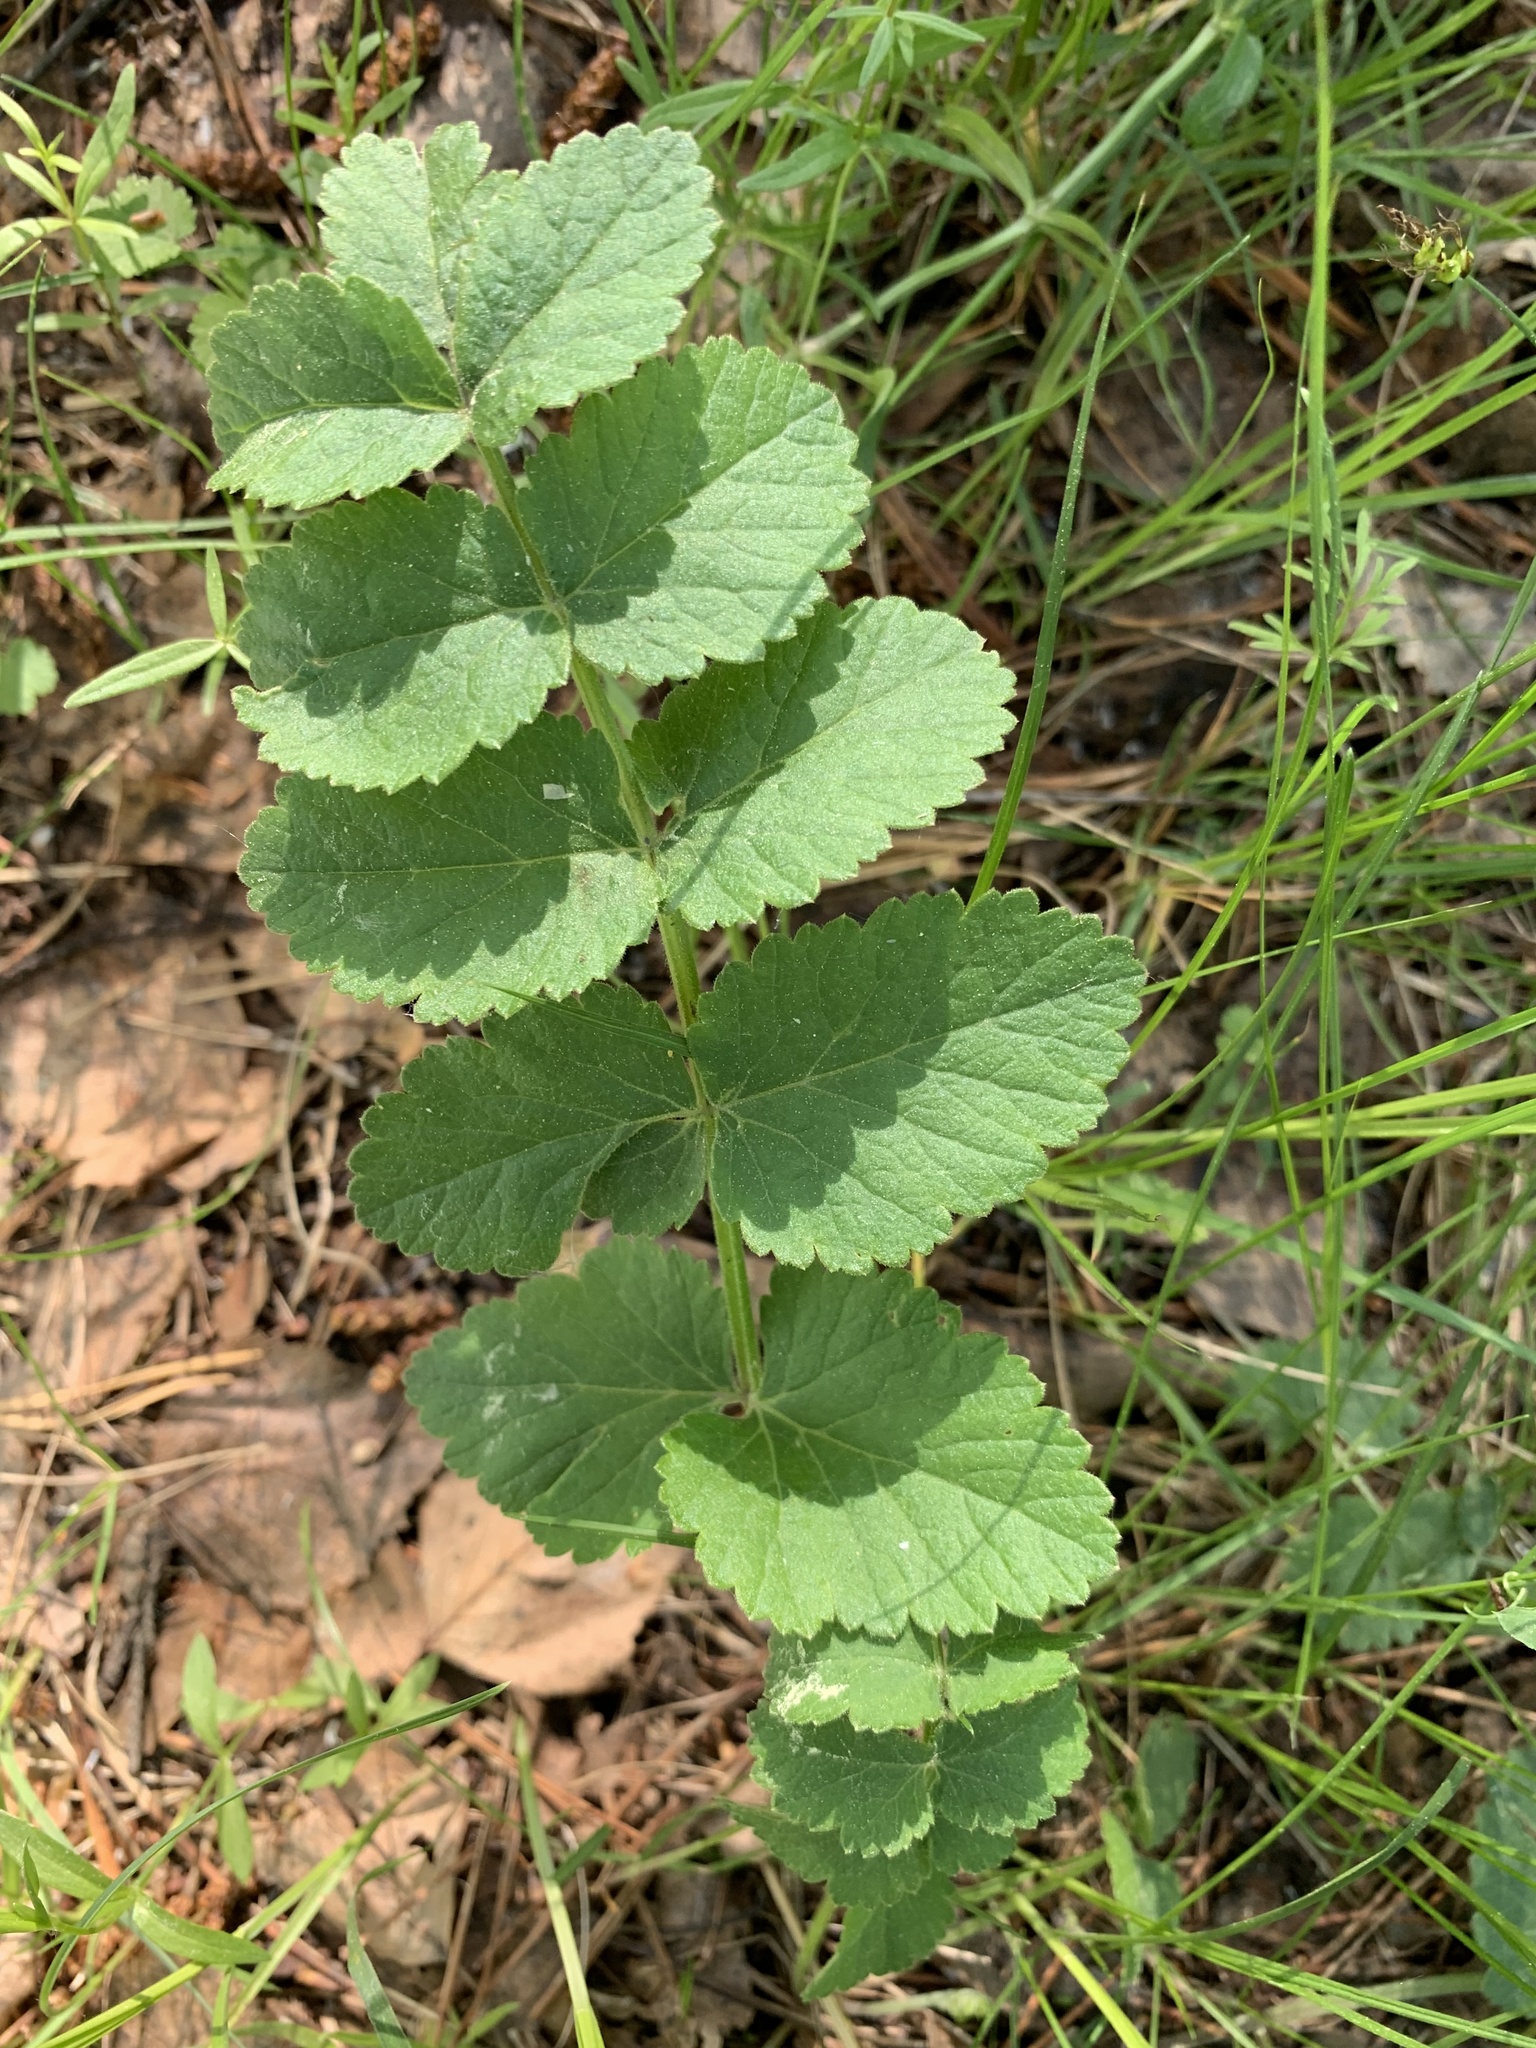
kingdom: Plantae
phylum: Tracheophyta
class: Magnoliopsida
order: Apiales
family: Apiaceae
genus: Pimpinella
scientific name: Pimpinella saxifraga
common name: Burnet-saxifrage
